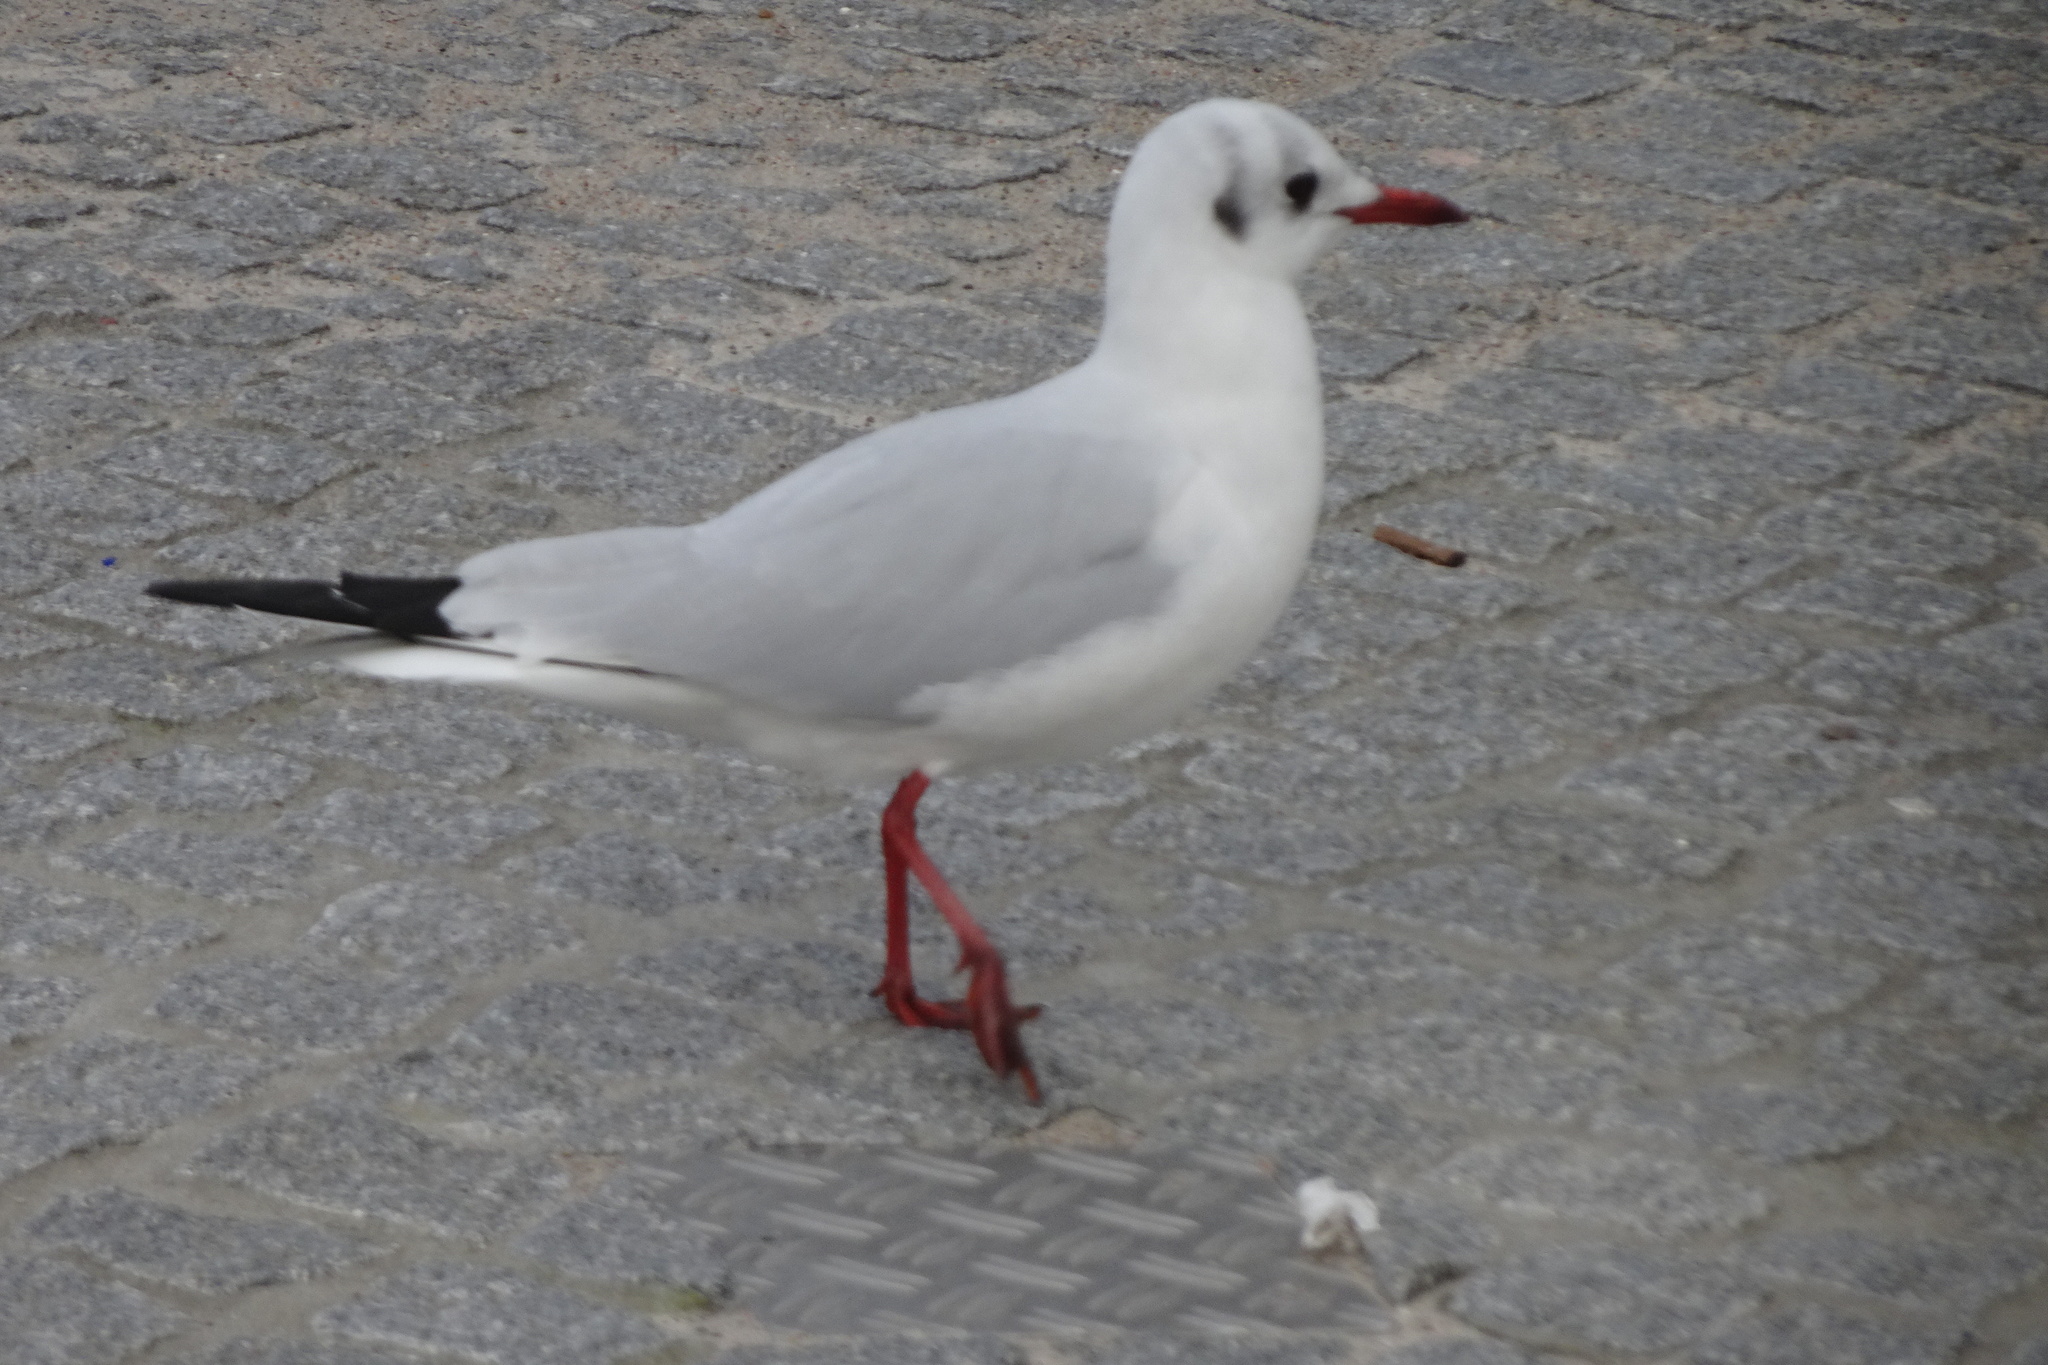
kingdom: Animalia
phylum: Chordata
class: Aves
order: Charadriiformes
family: Laridae
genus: Chroicocephalus
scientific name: Chroicocephalus ridibundus
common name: Black-headed gull
